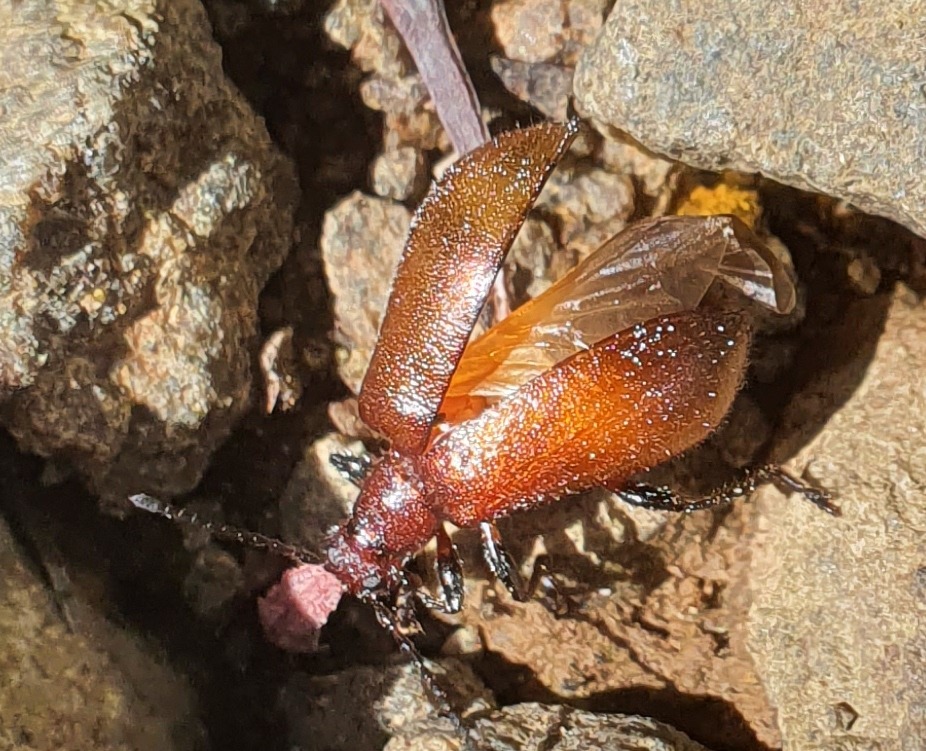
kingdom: Animalia
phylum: Arthropoda
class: Insecta
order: Coleoptera
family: Tenebrionidae
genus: Ecnolagria
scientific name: Ecnolagria
